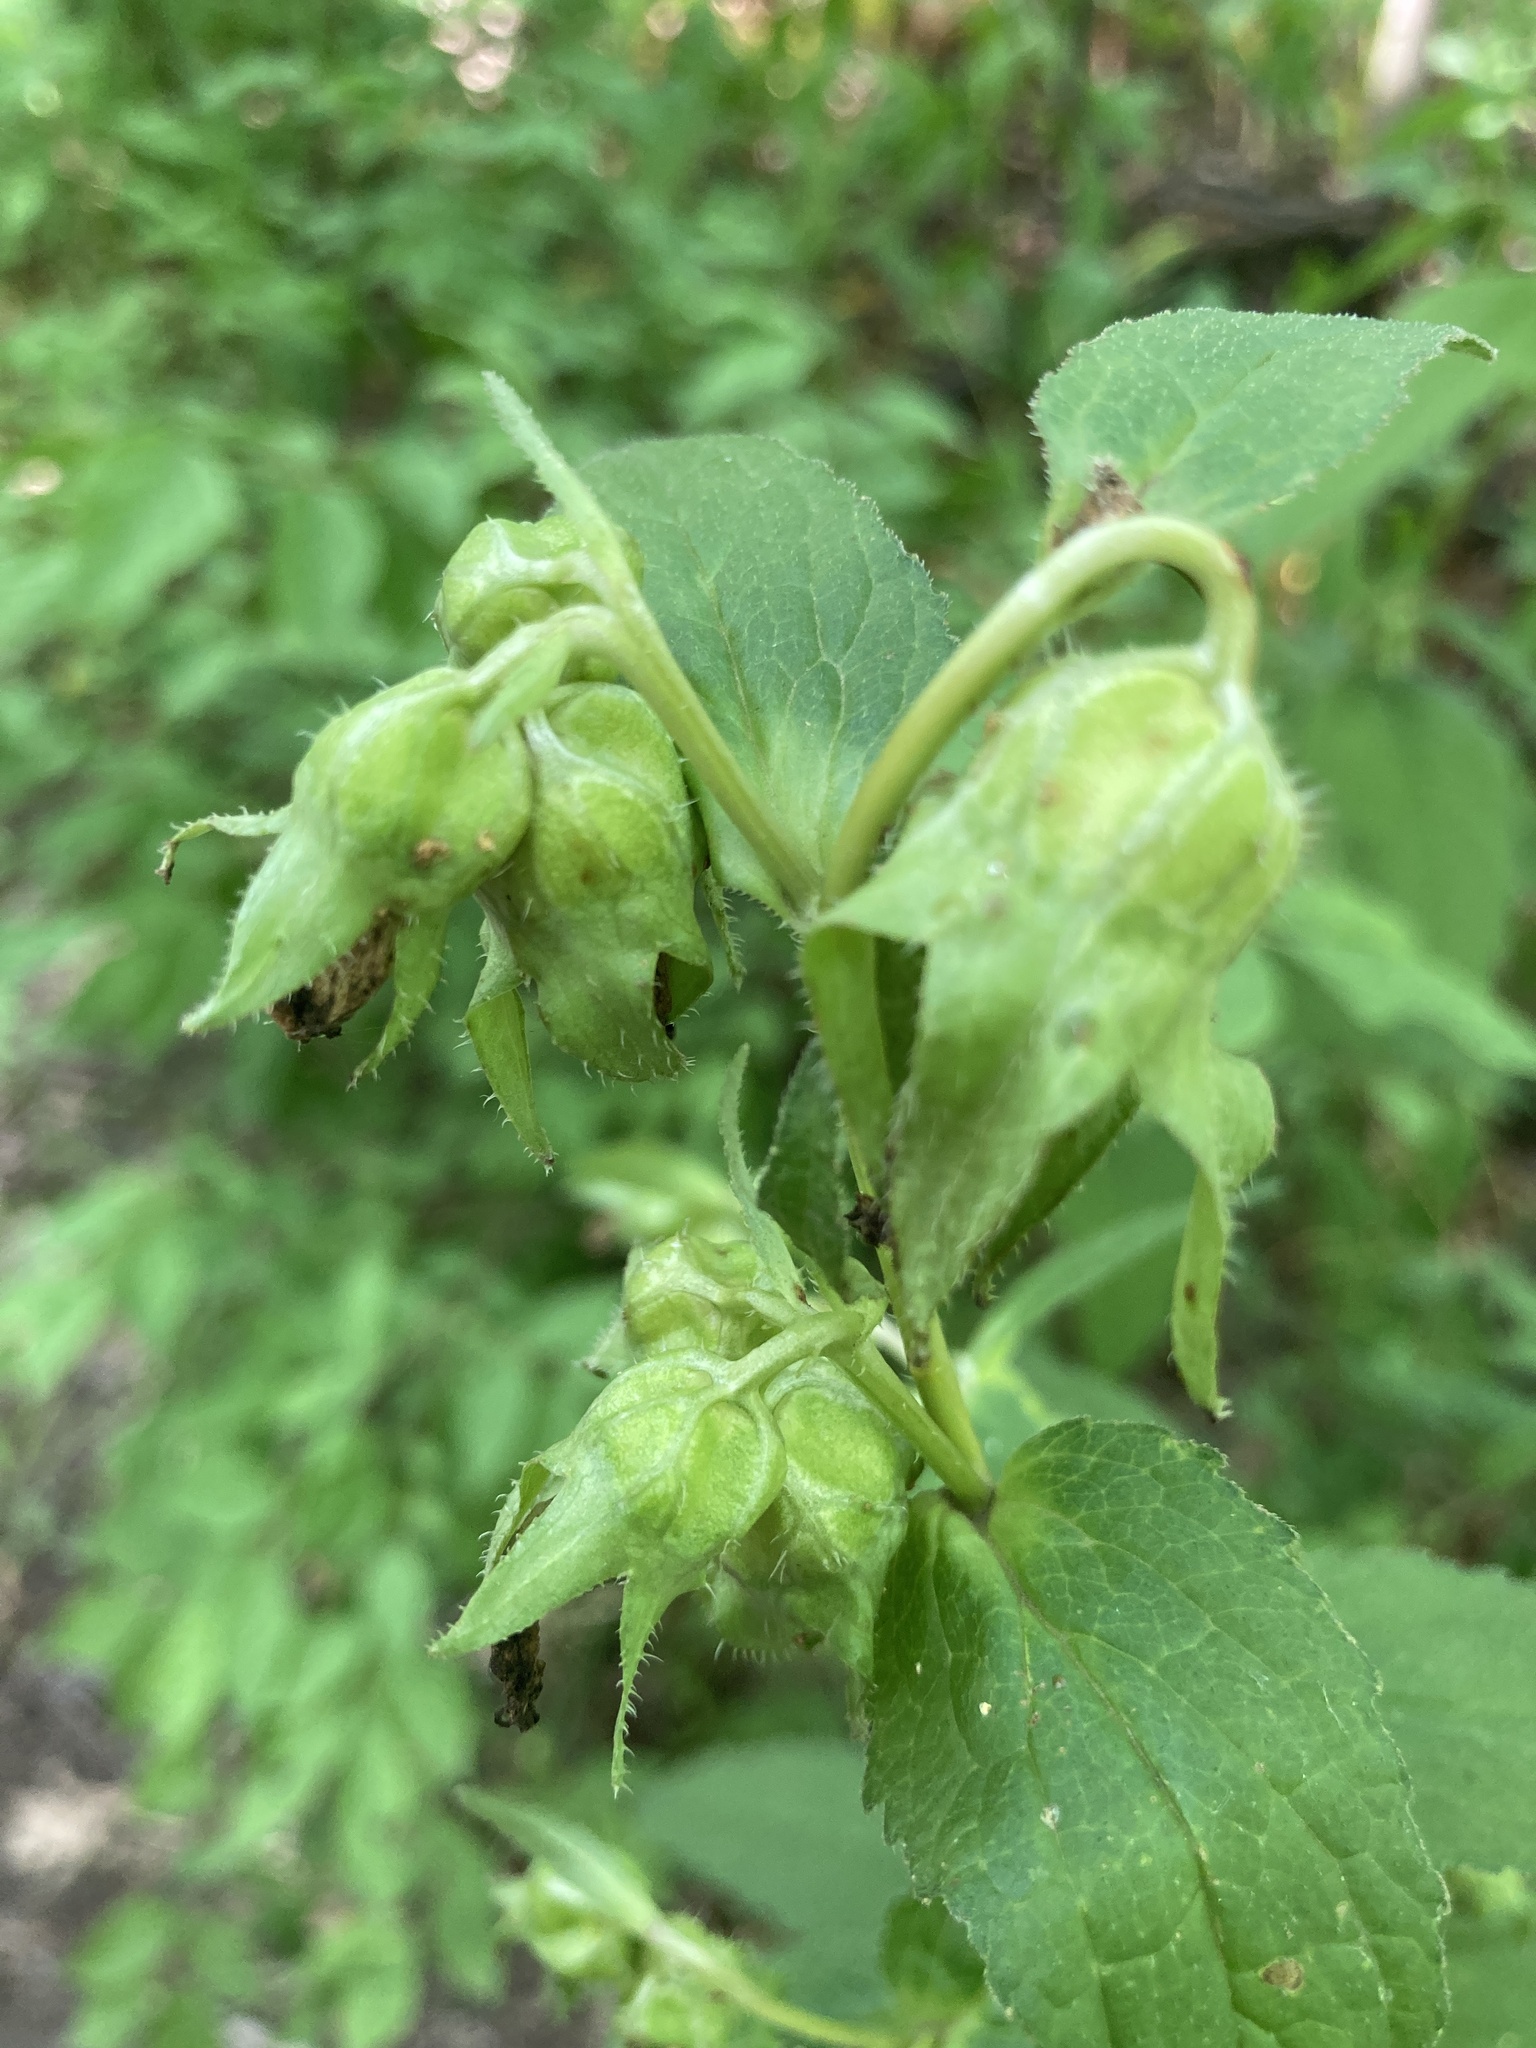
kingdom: Plantae
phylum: Tracheophyta
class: Magnoliopsida
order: Asterales
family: Campanulaceae
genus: Campanula
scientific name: Campanula trachelium
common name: Nettle-leaved bellflower
